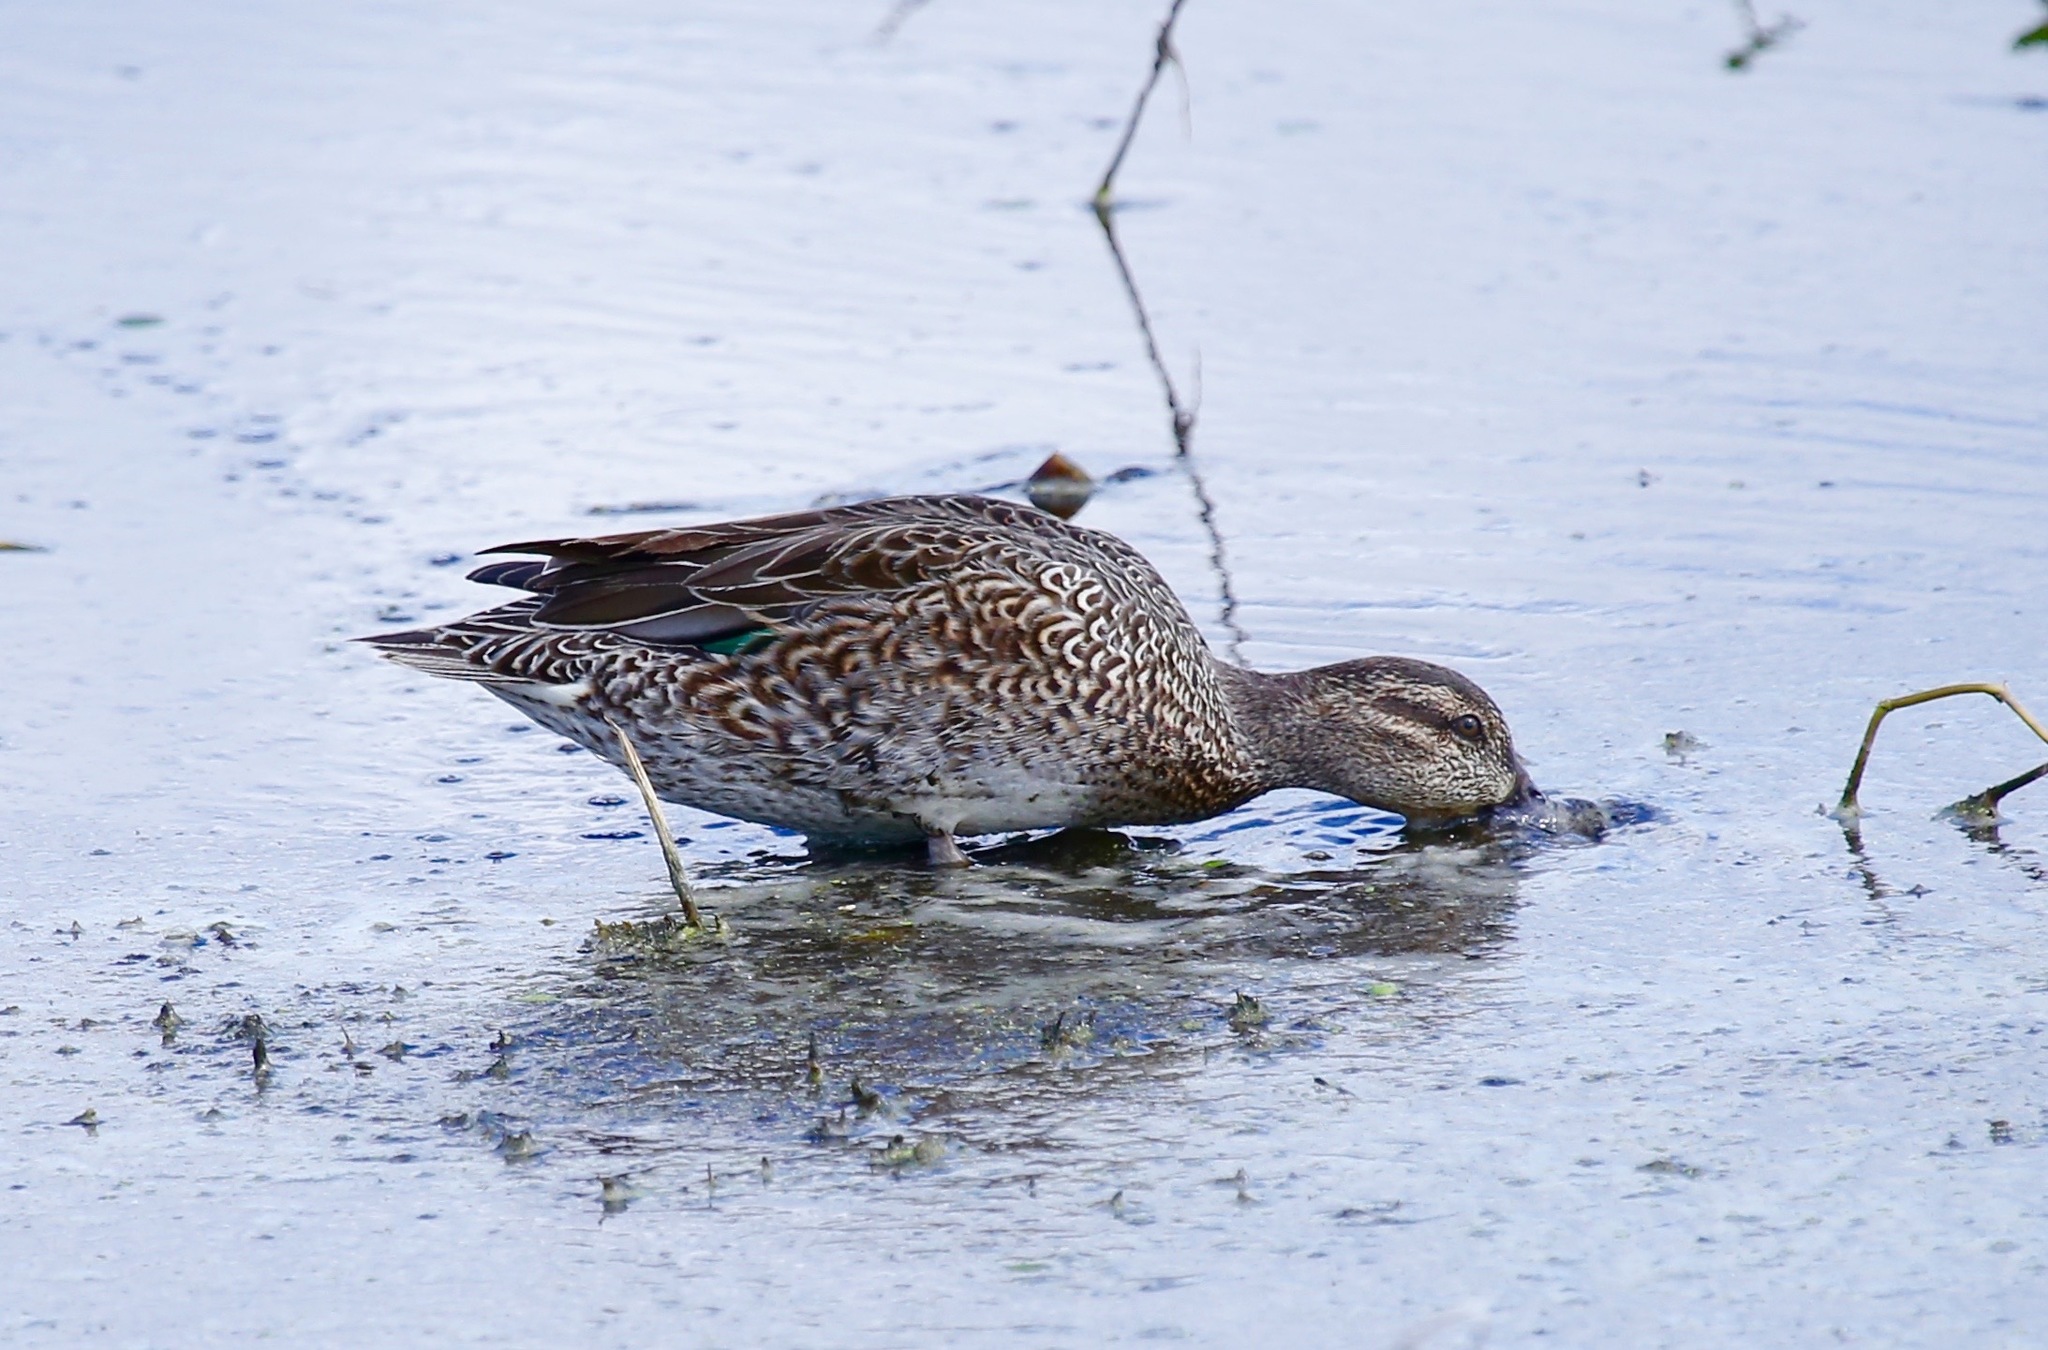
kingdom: Animalia
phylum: Chordata
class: Aves
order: Anseriformes
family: Anatidae
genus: Anas
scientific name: Anas crecca
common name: Eurasian teal
